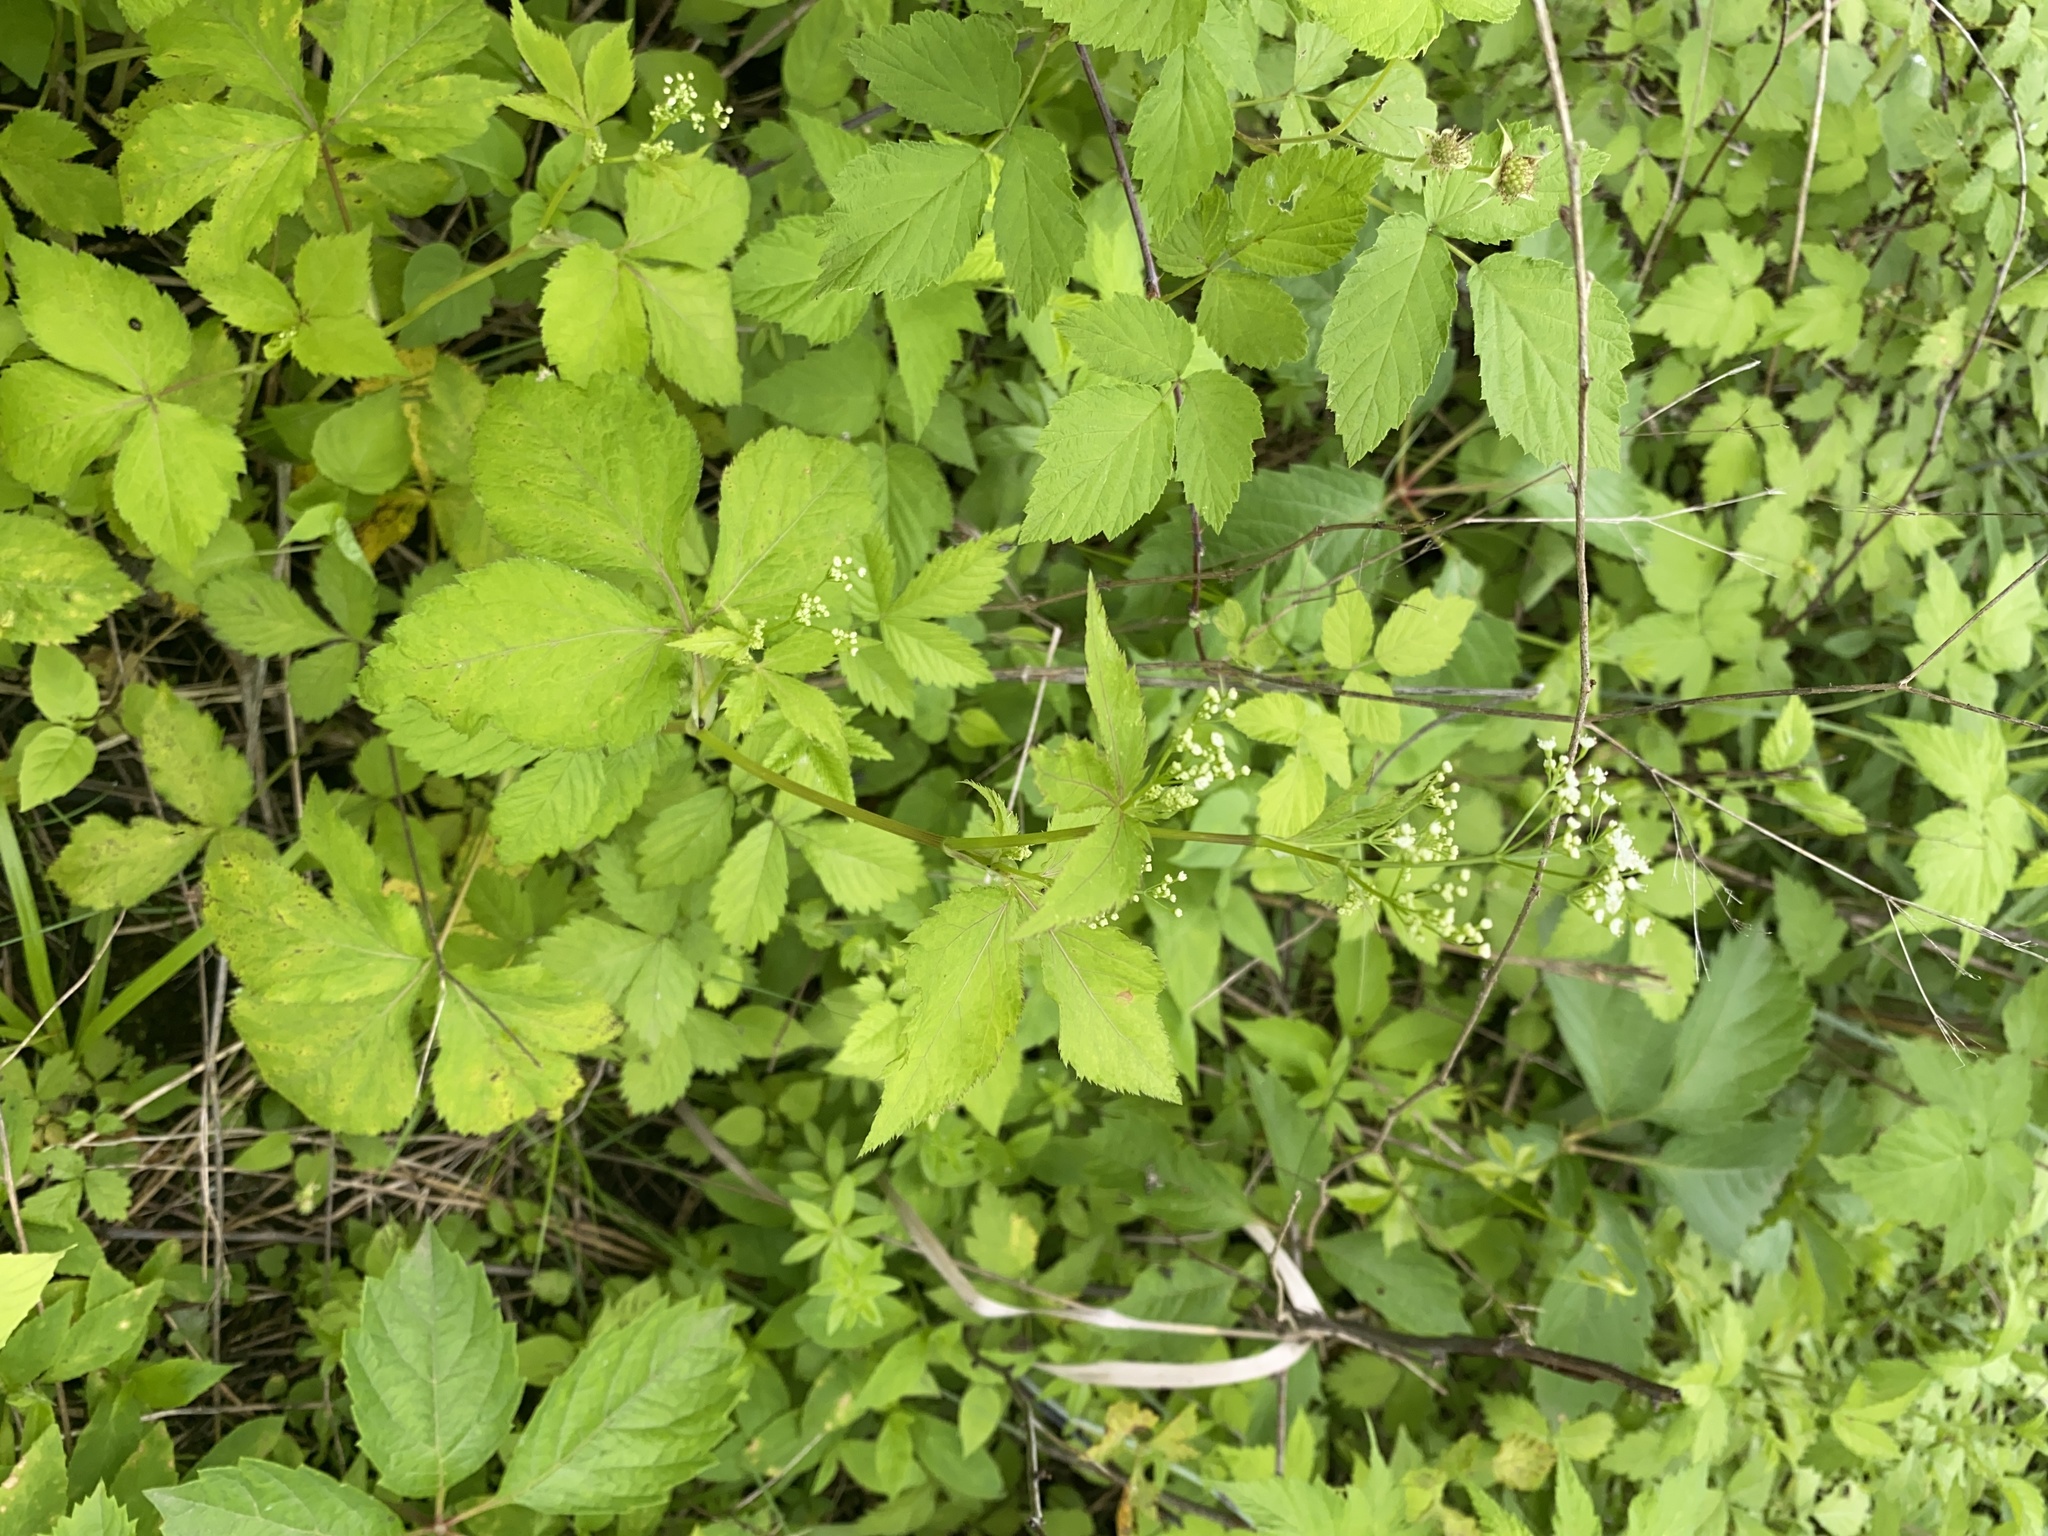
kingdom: Plantae
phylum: Tracheophyta
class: Magnoliopsida
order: Apiales
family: Apiaceae
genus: Cryptotaenia
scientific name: Cryptotaenia canadensis
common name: Honewort
